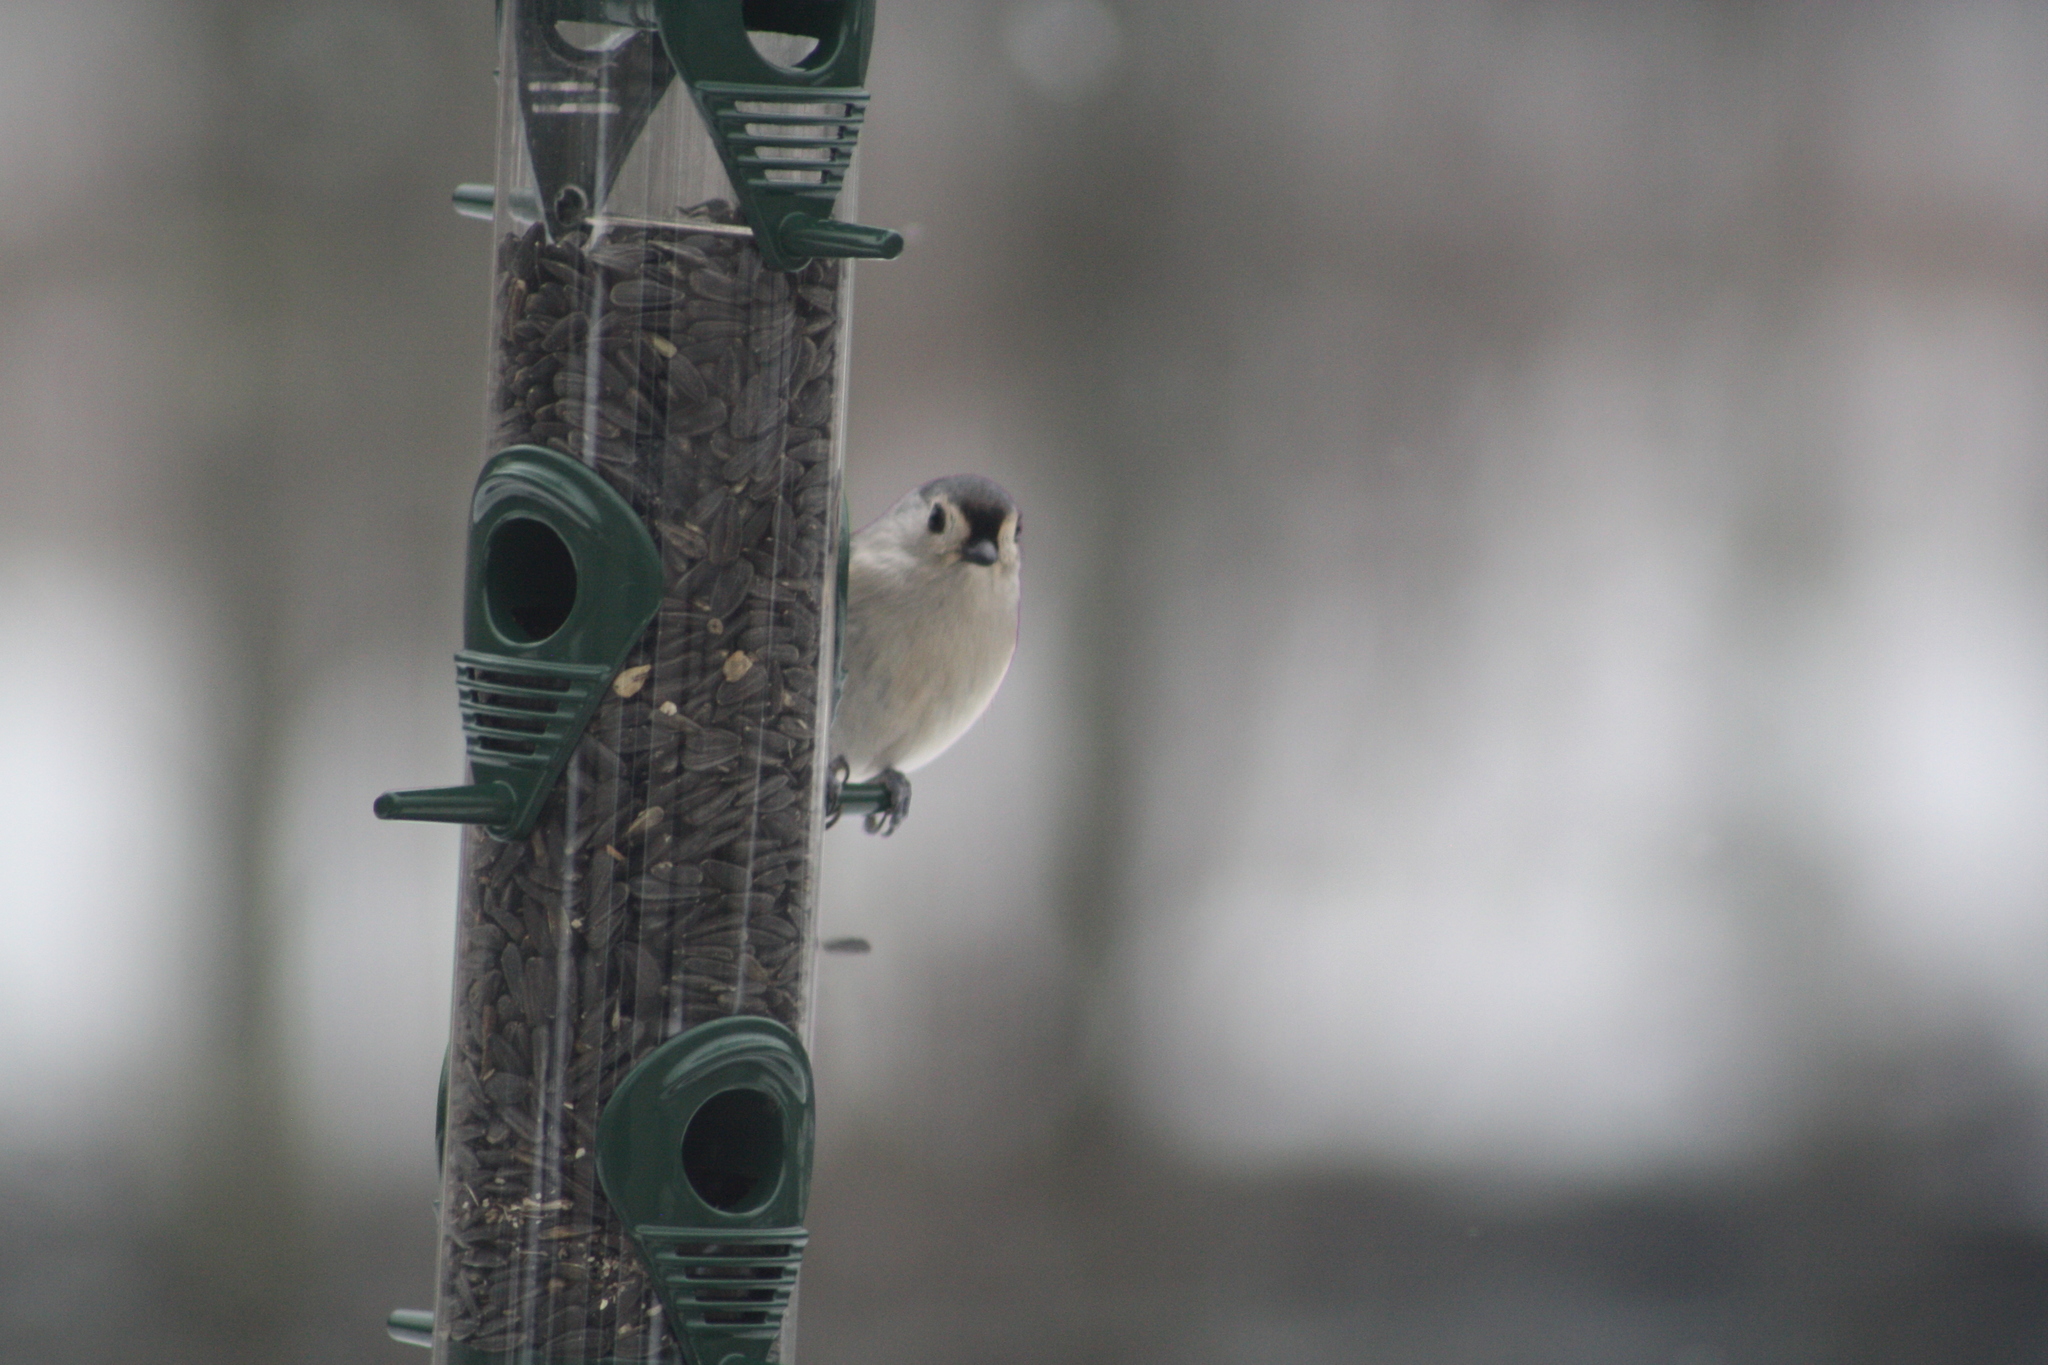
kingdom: Animalia
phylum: Chordata
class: Aves
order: Passeriformes
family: Paridae
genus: Baeolophus
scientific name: Baeolophus bicolor
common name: Tufted titmouse
